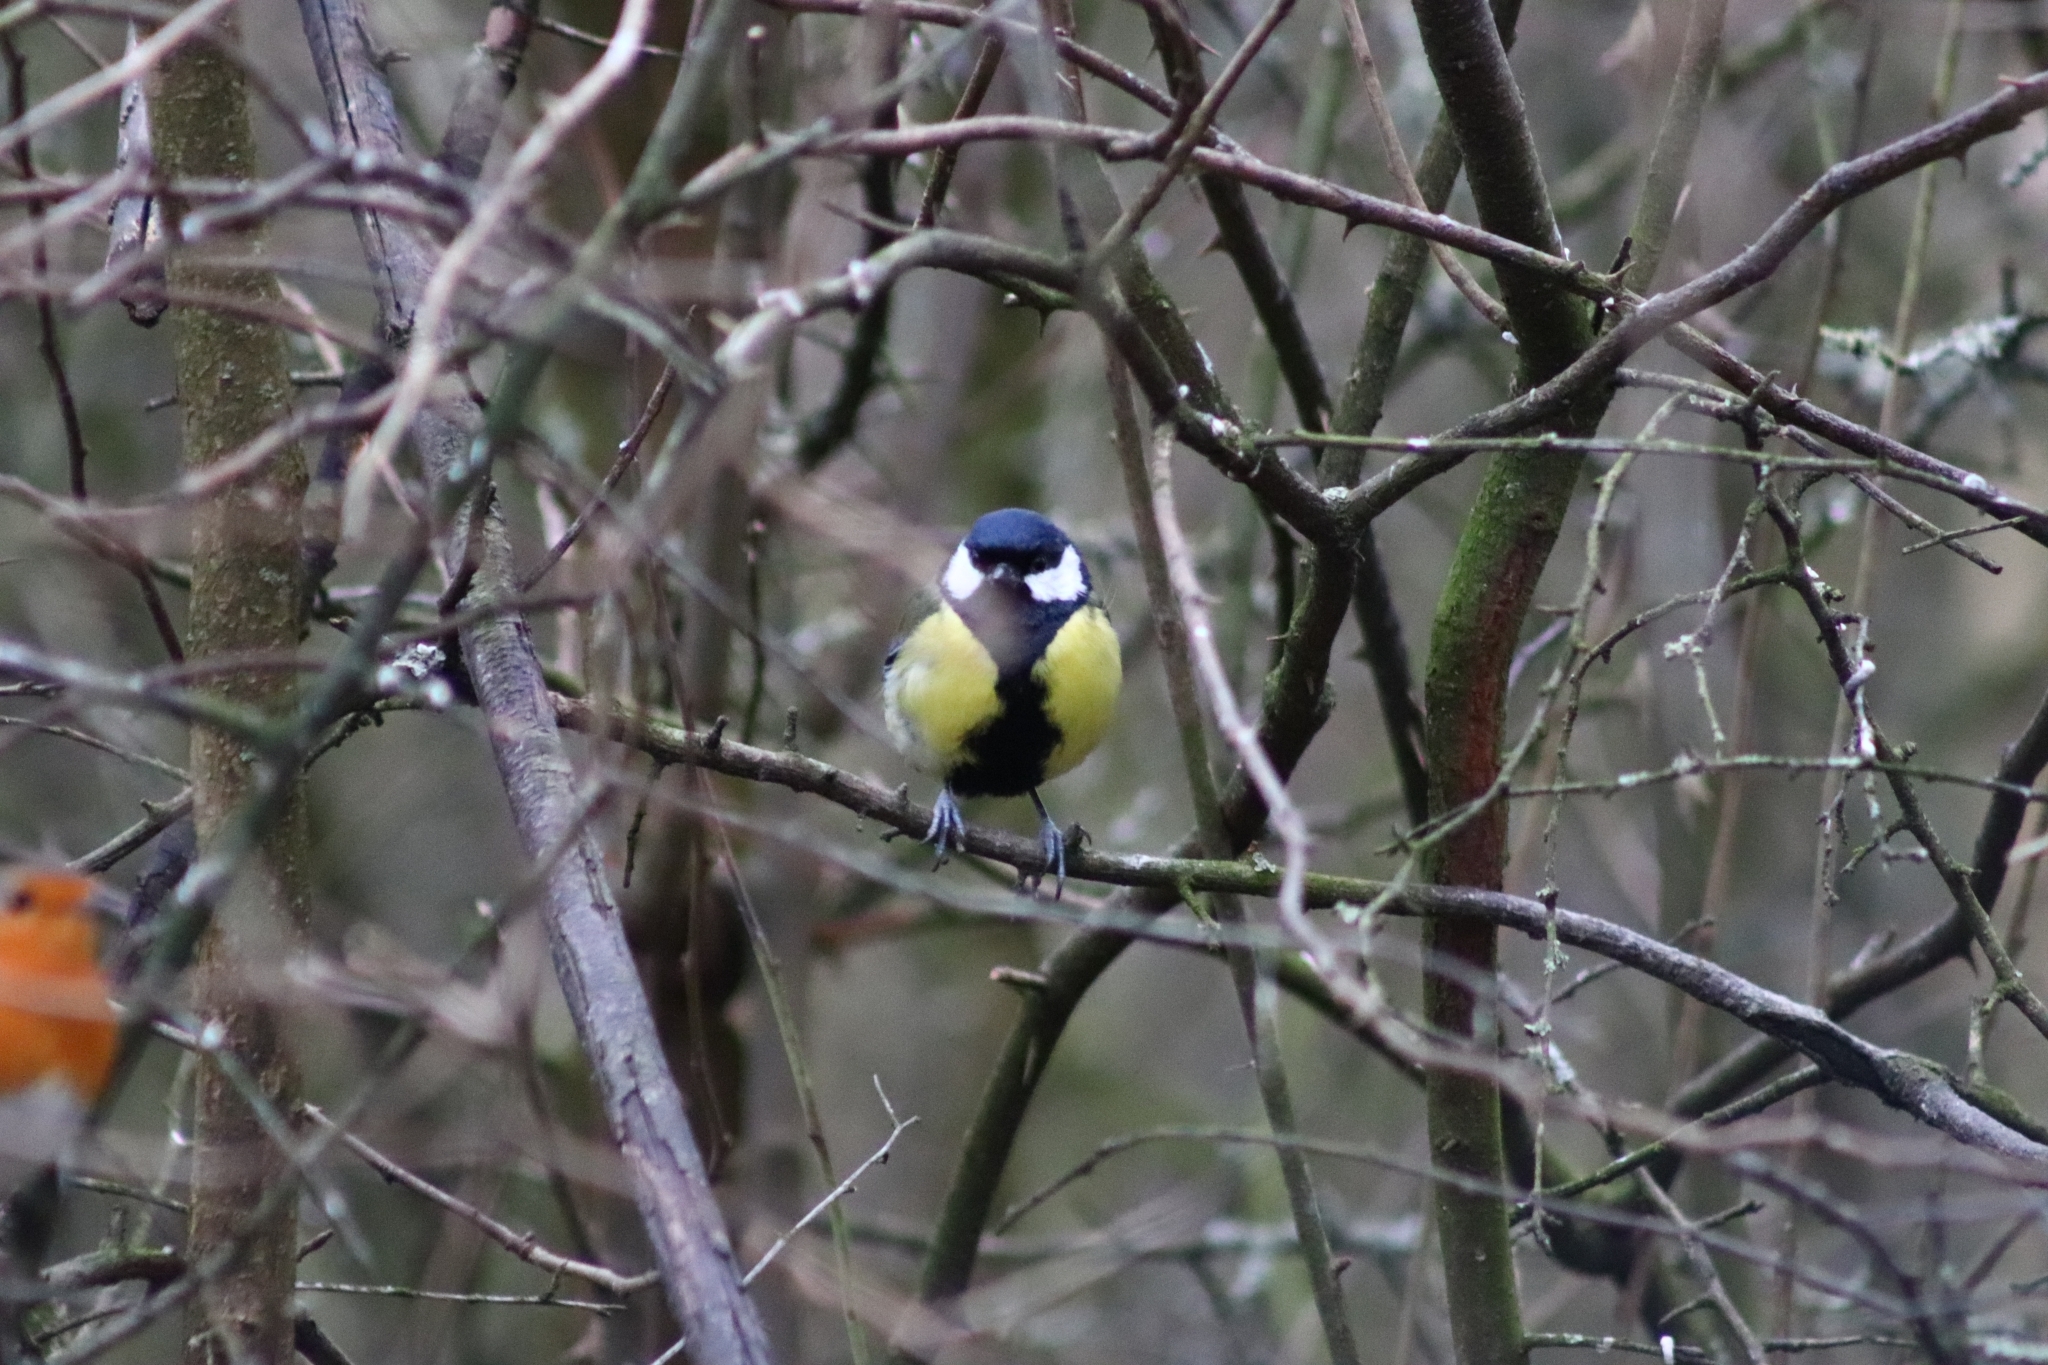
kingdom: Animalia
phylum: Chordata
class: Aves
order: Passeriformes
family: Paridae
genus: Parus
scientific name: Parus major
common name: Great tit
